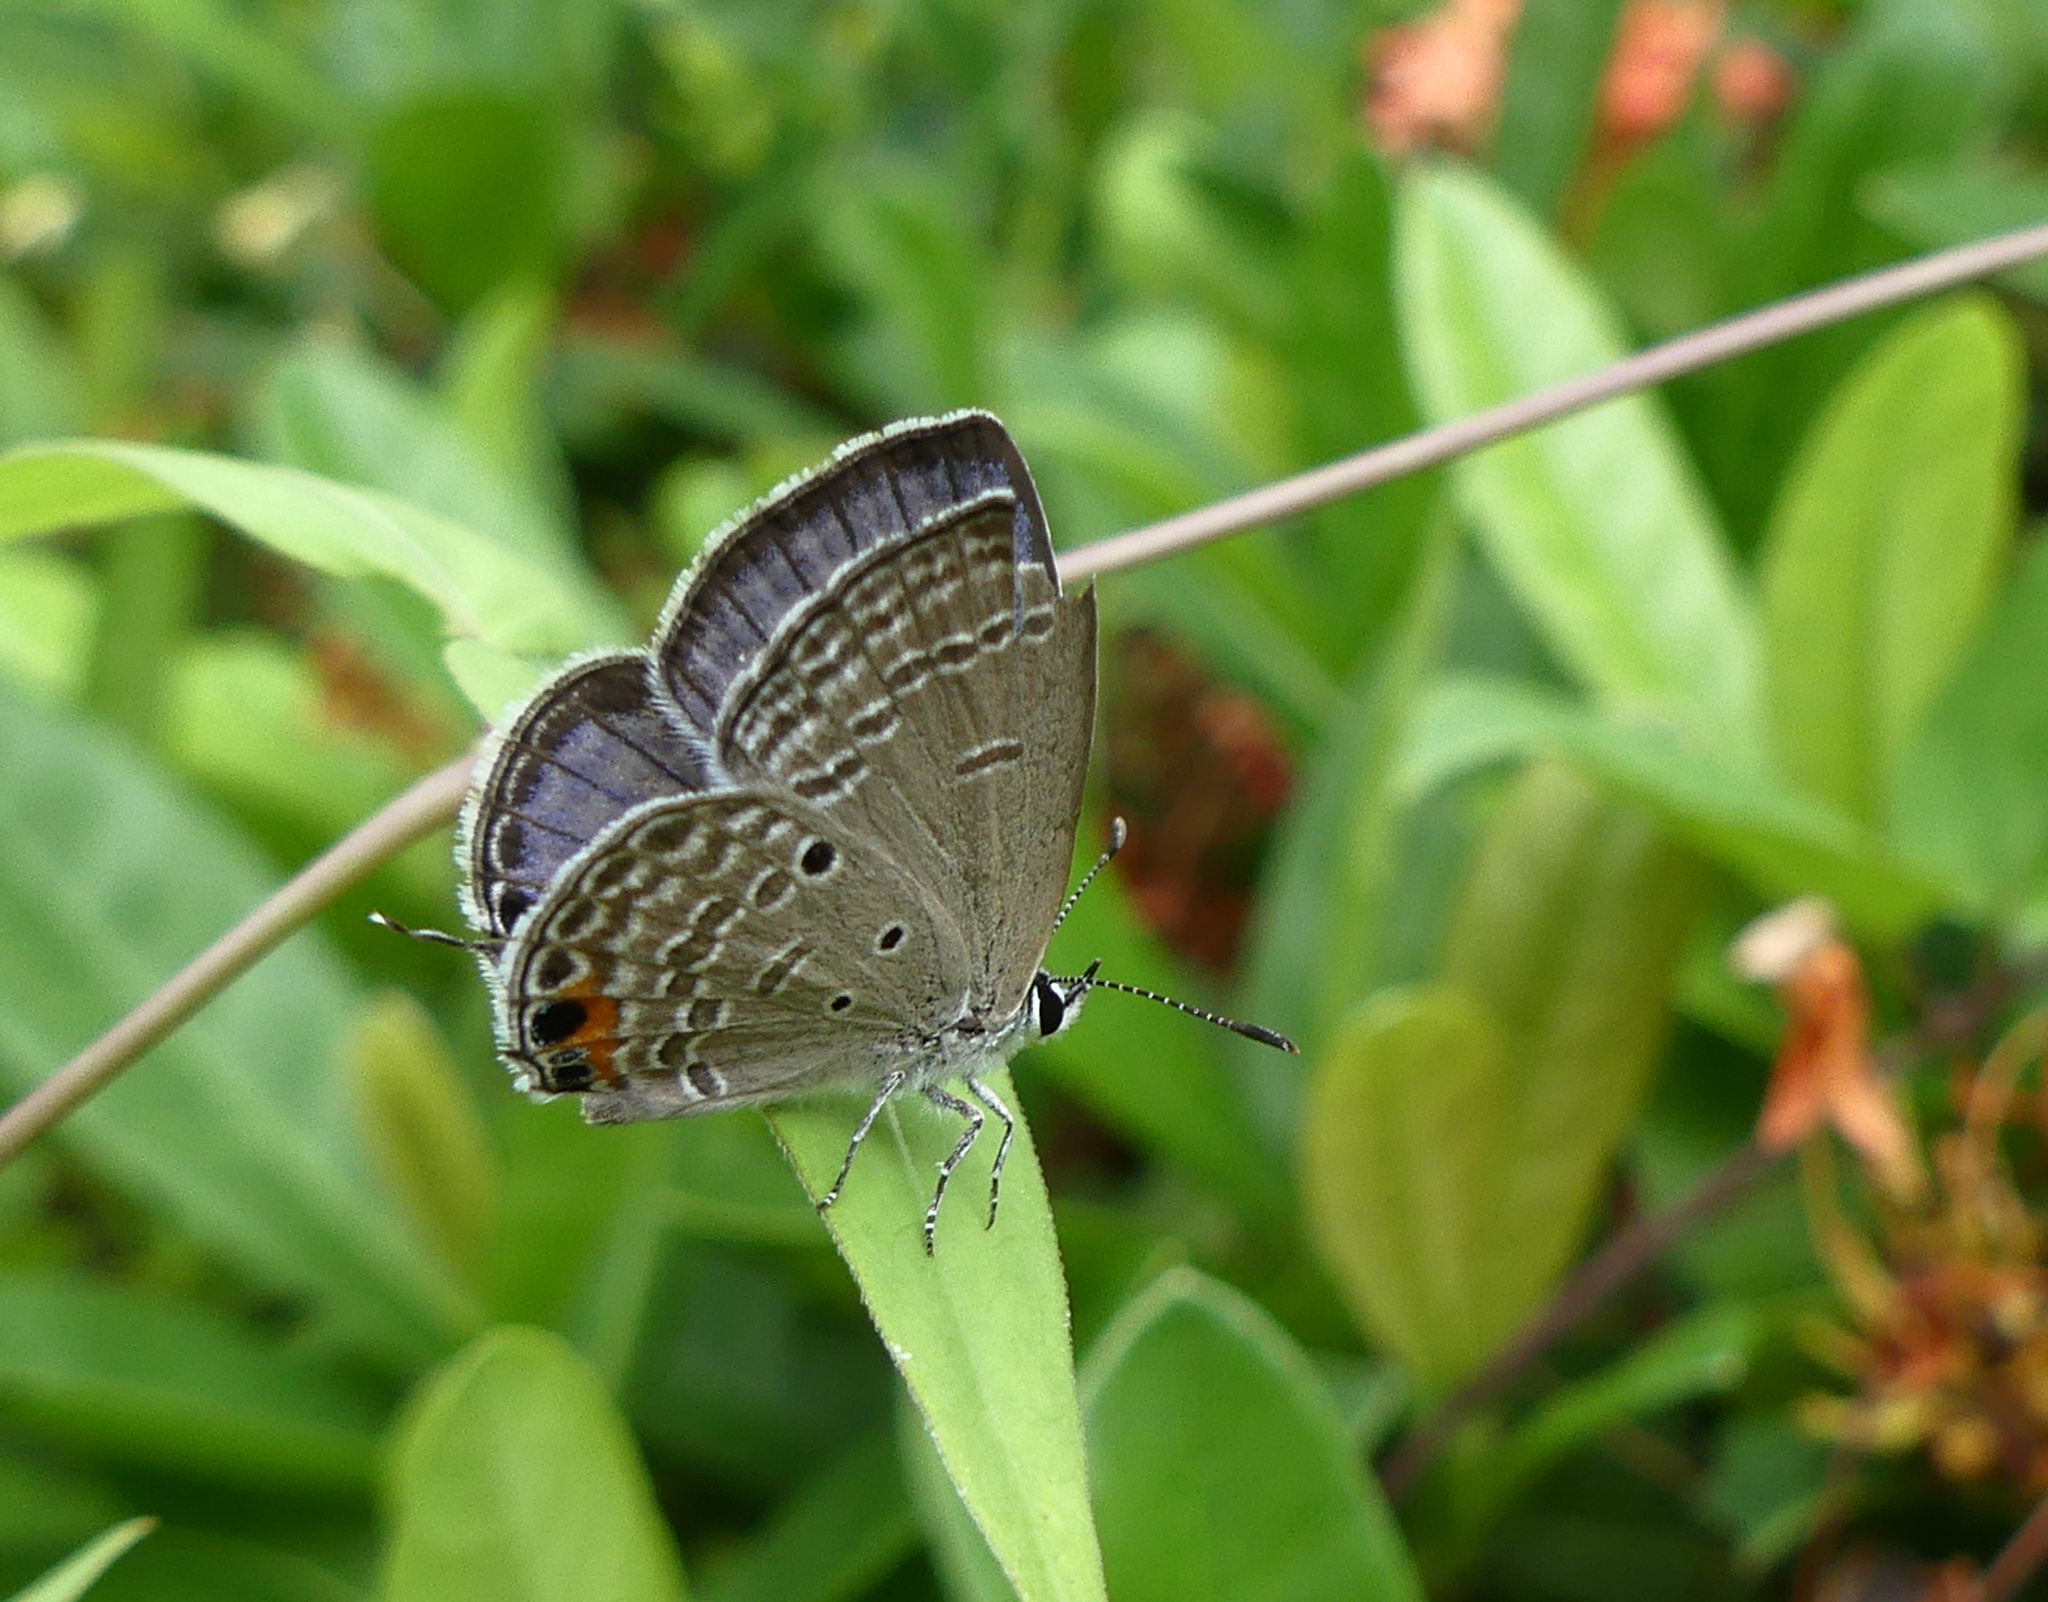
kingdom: Animalia
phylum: Arthropoda
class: Insecta
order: Lepidoptera
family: Lycaenidae
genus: Luthrodes
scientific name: Luthrodes pandava
